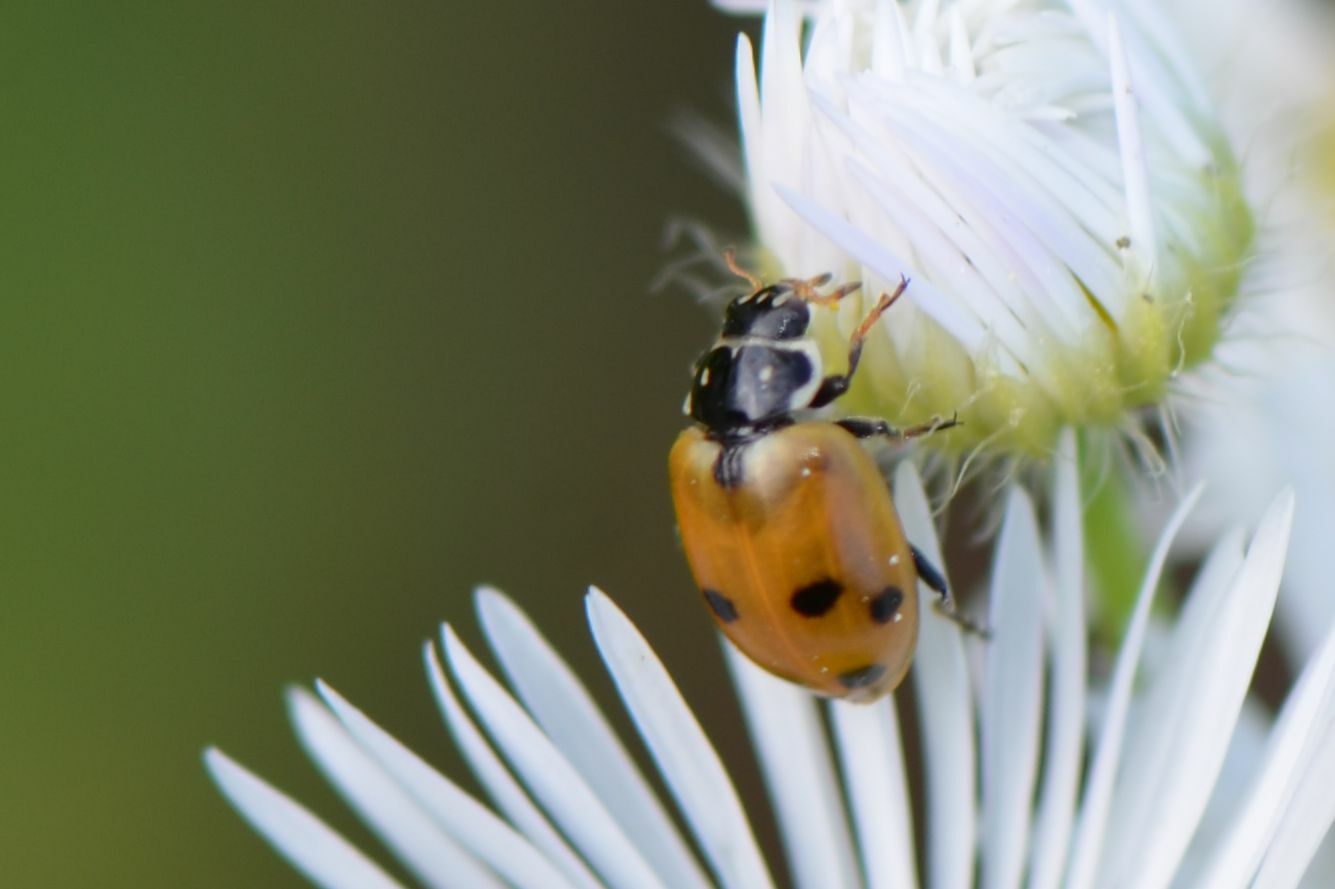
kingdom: Animalia
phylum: Arthropoda
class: Insecta
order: Coleoptera
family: Coccinellidae
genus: Hippodamia
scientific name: Hippodamia variegata
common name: Ladybird beetle
